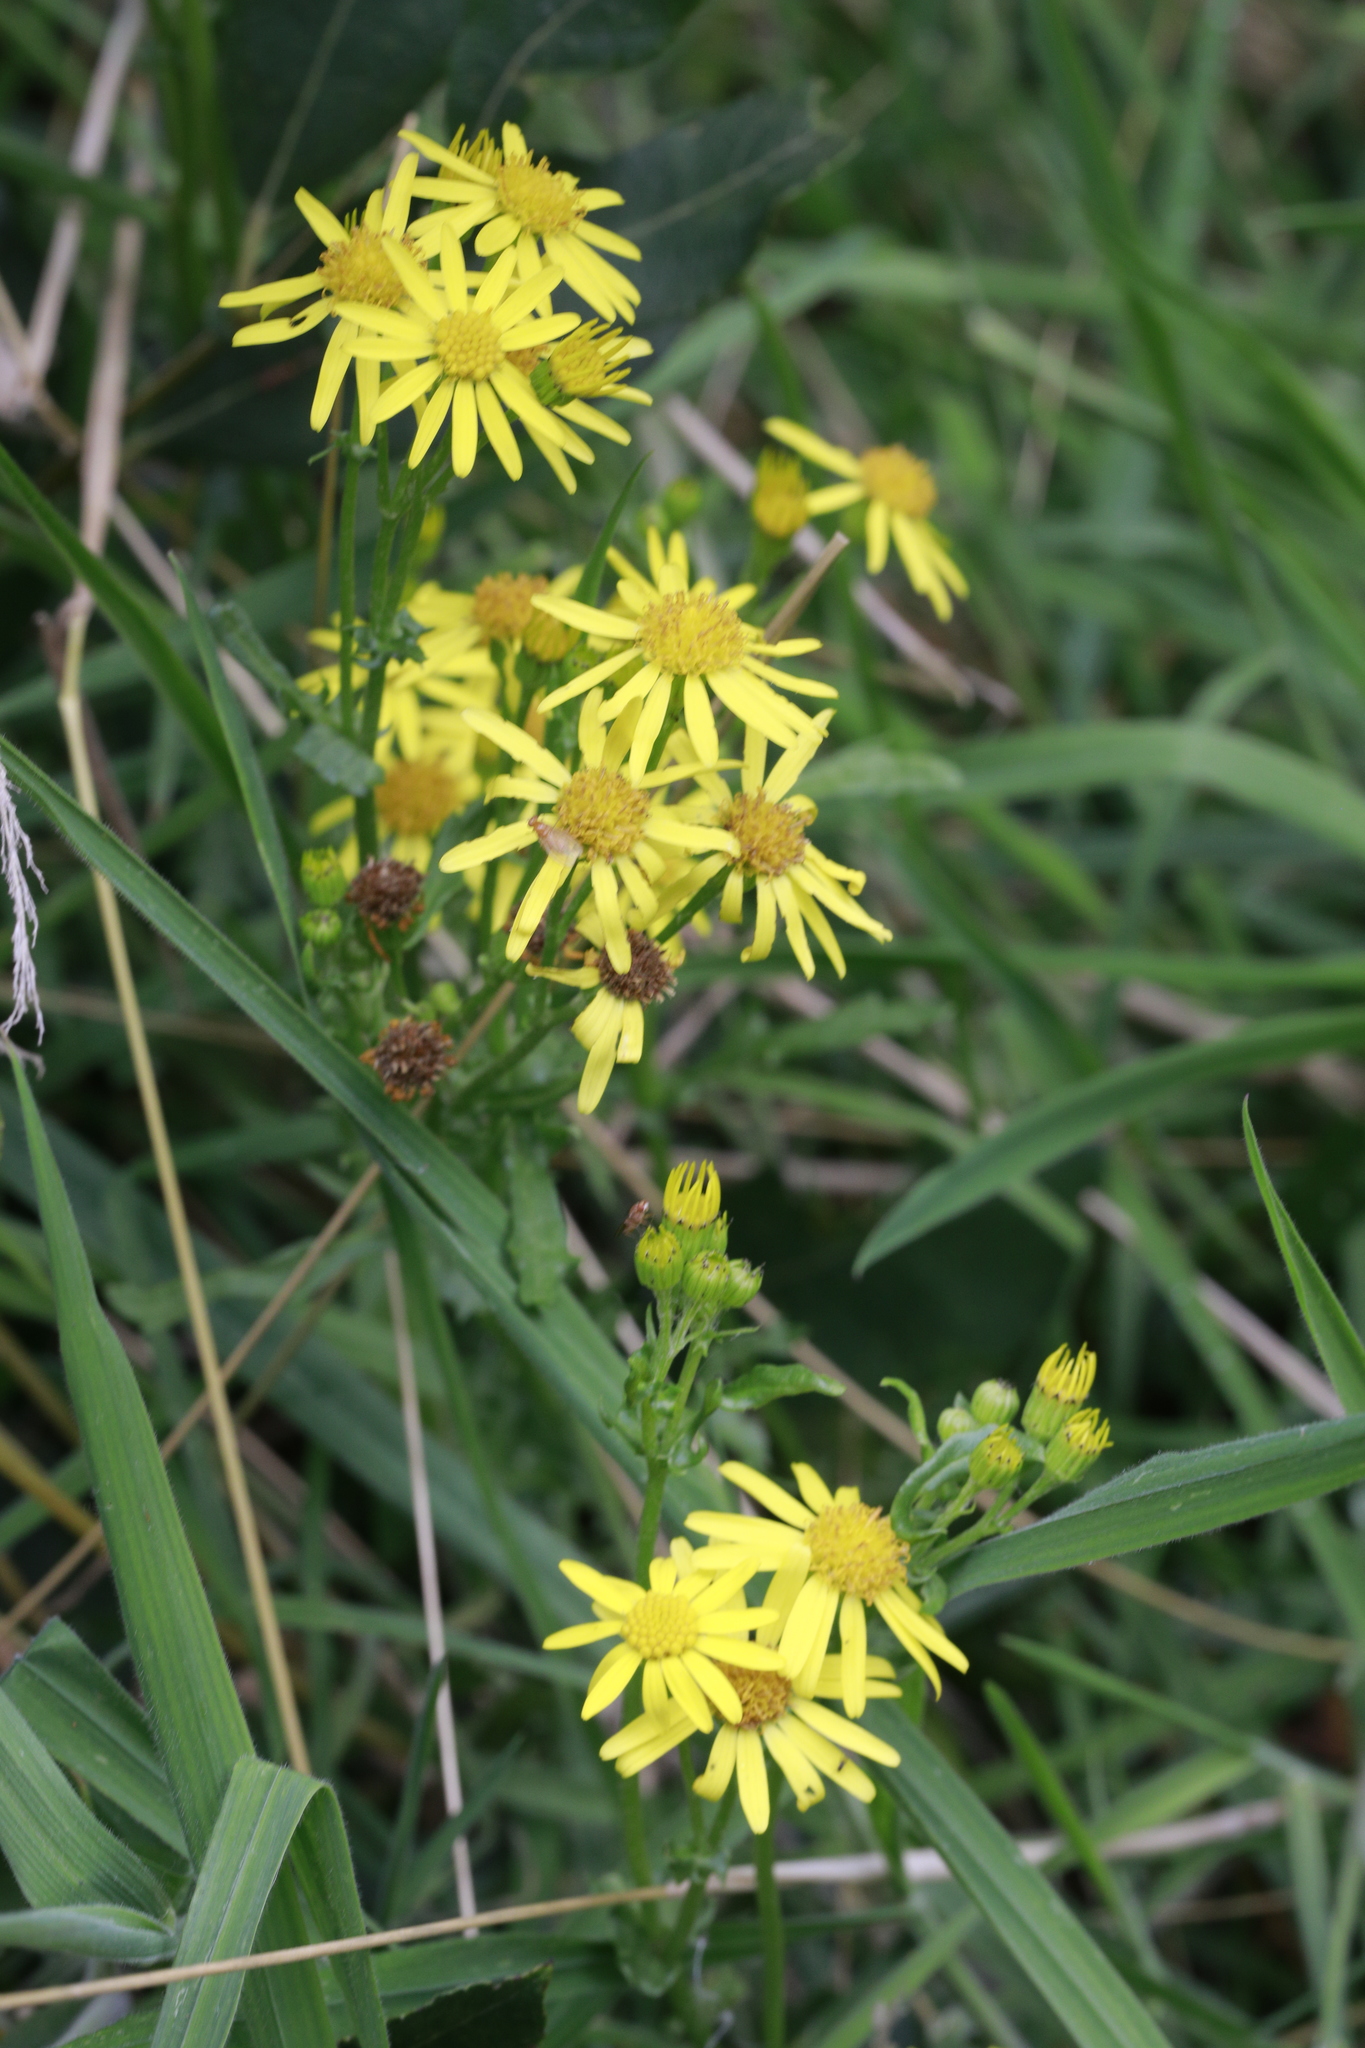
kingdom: Plantae
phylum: Tracheophyta
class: Magnoliopsida
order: Asterales
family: Asteraceae
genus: Jacobaea
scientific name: Jacobaea vulgaris
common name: Stinking willie
